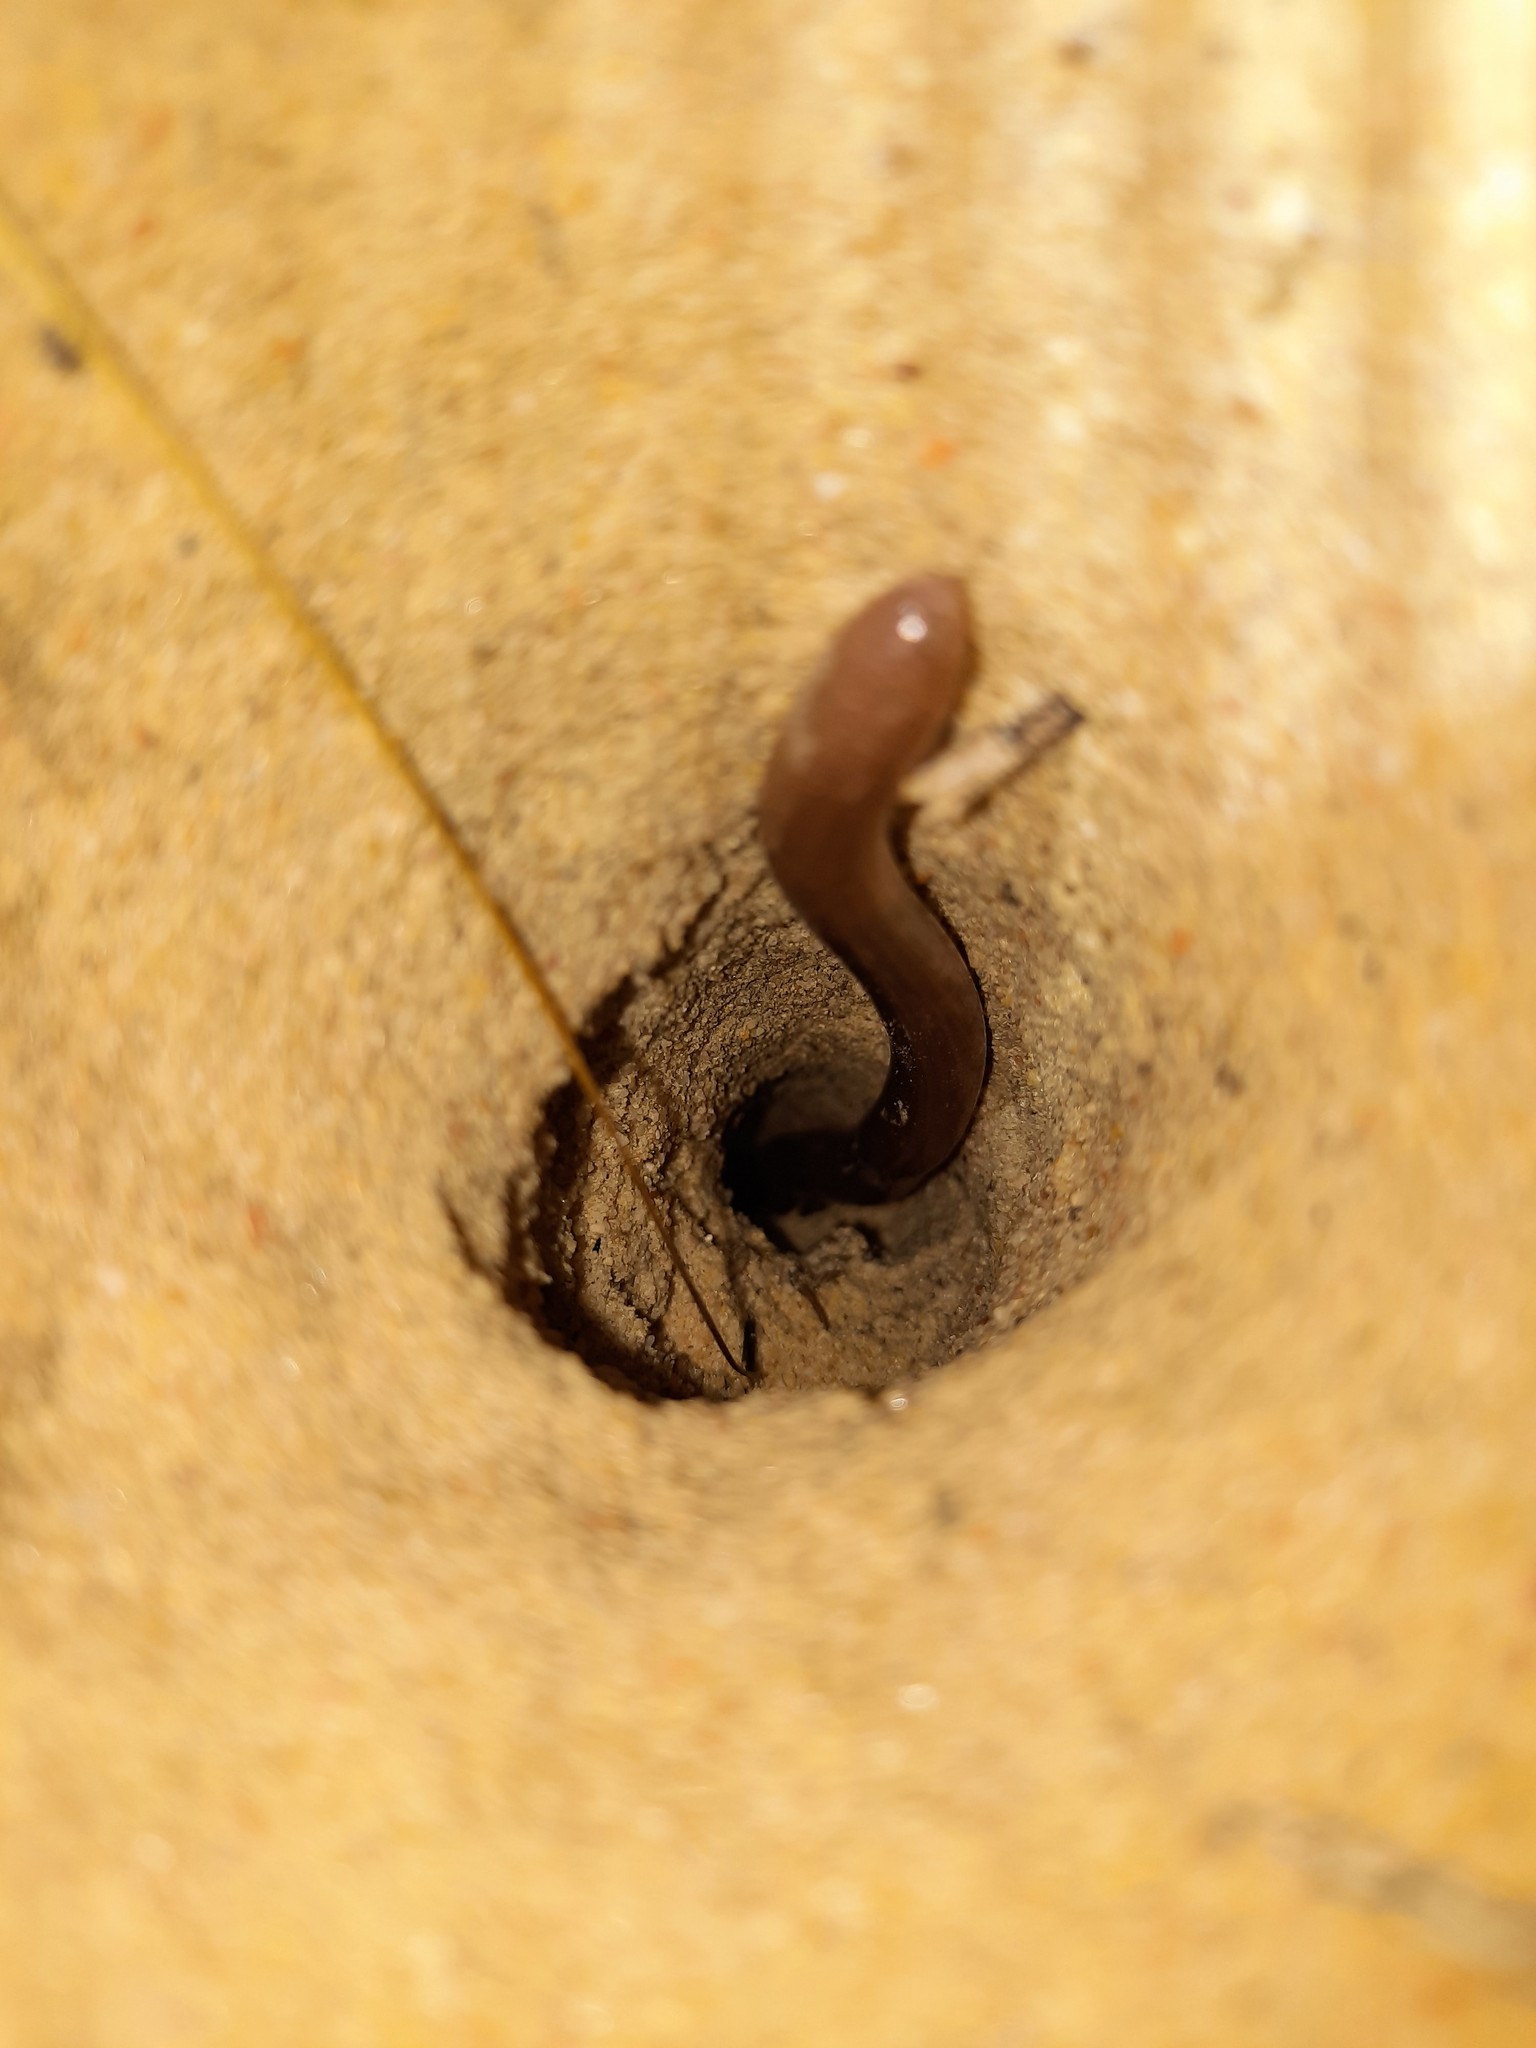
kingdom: Animalia
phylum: Chordata
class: Squamata
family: Typhlopidae
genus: Anilios
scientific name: Anilios bituberculatus
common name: Prong-snouted blind snake
